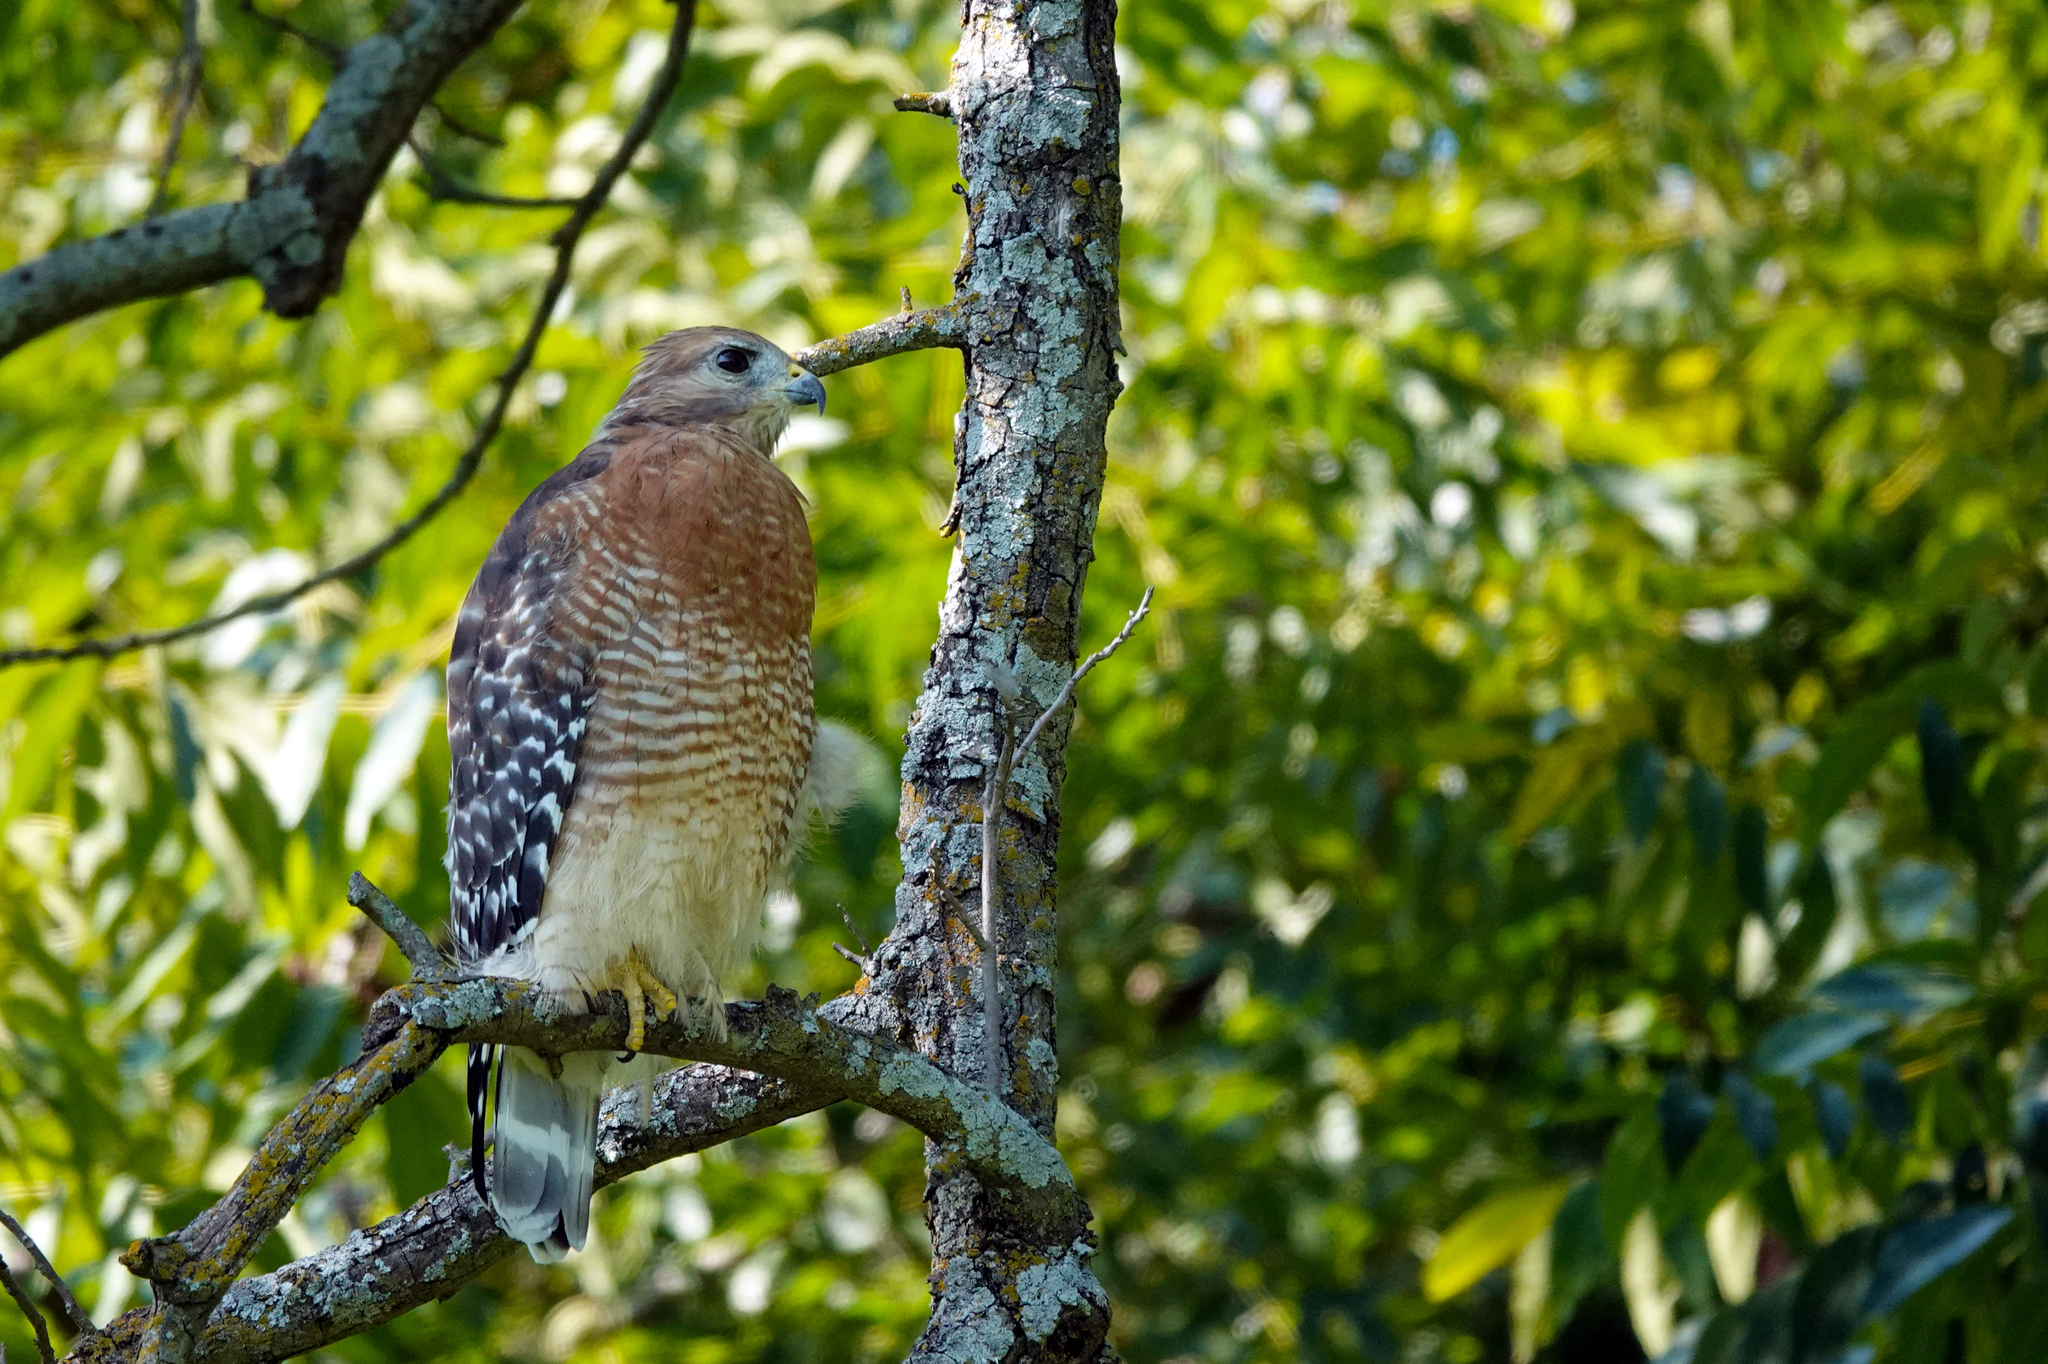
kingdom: Animalia
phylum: Chordata
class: Aves
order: Accipitriformes
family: Accipitridae
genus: Buteo
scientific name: Buteo lineatus
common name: Red-shouldered hawk
